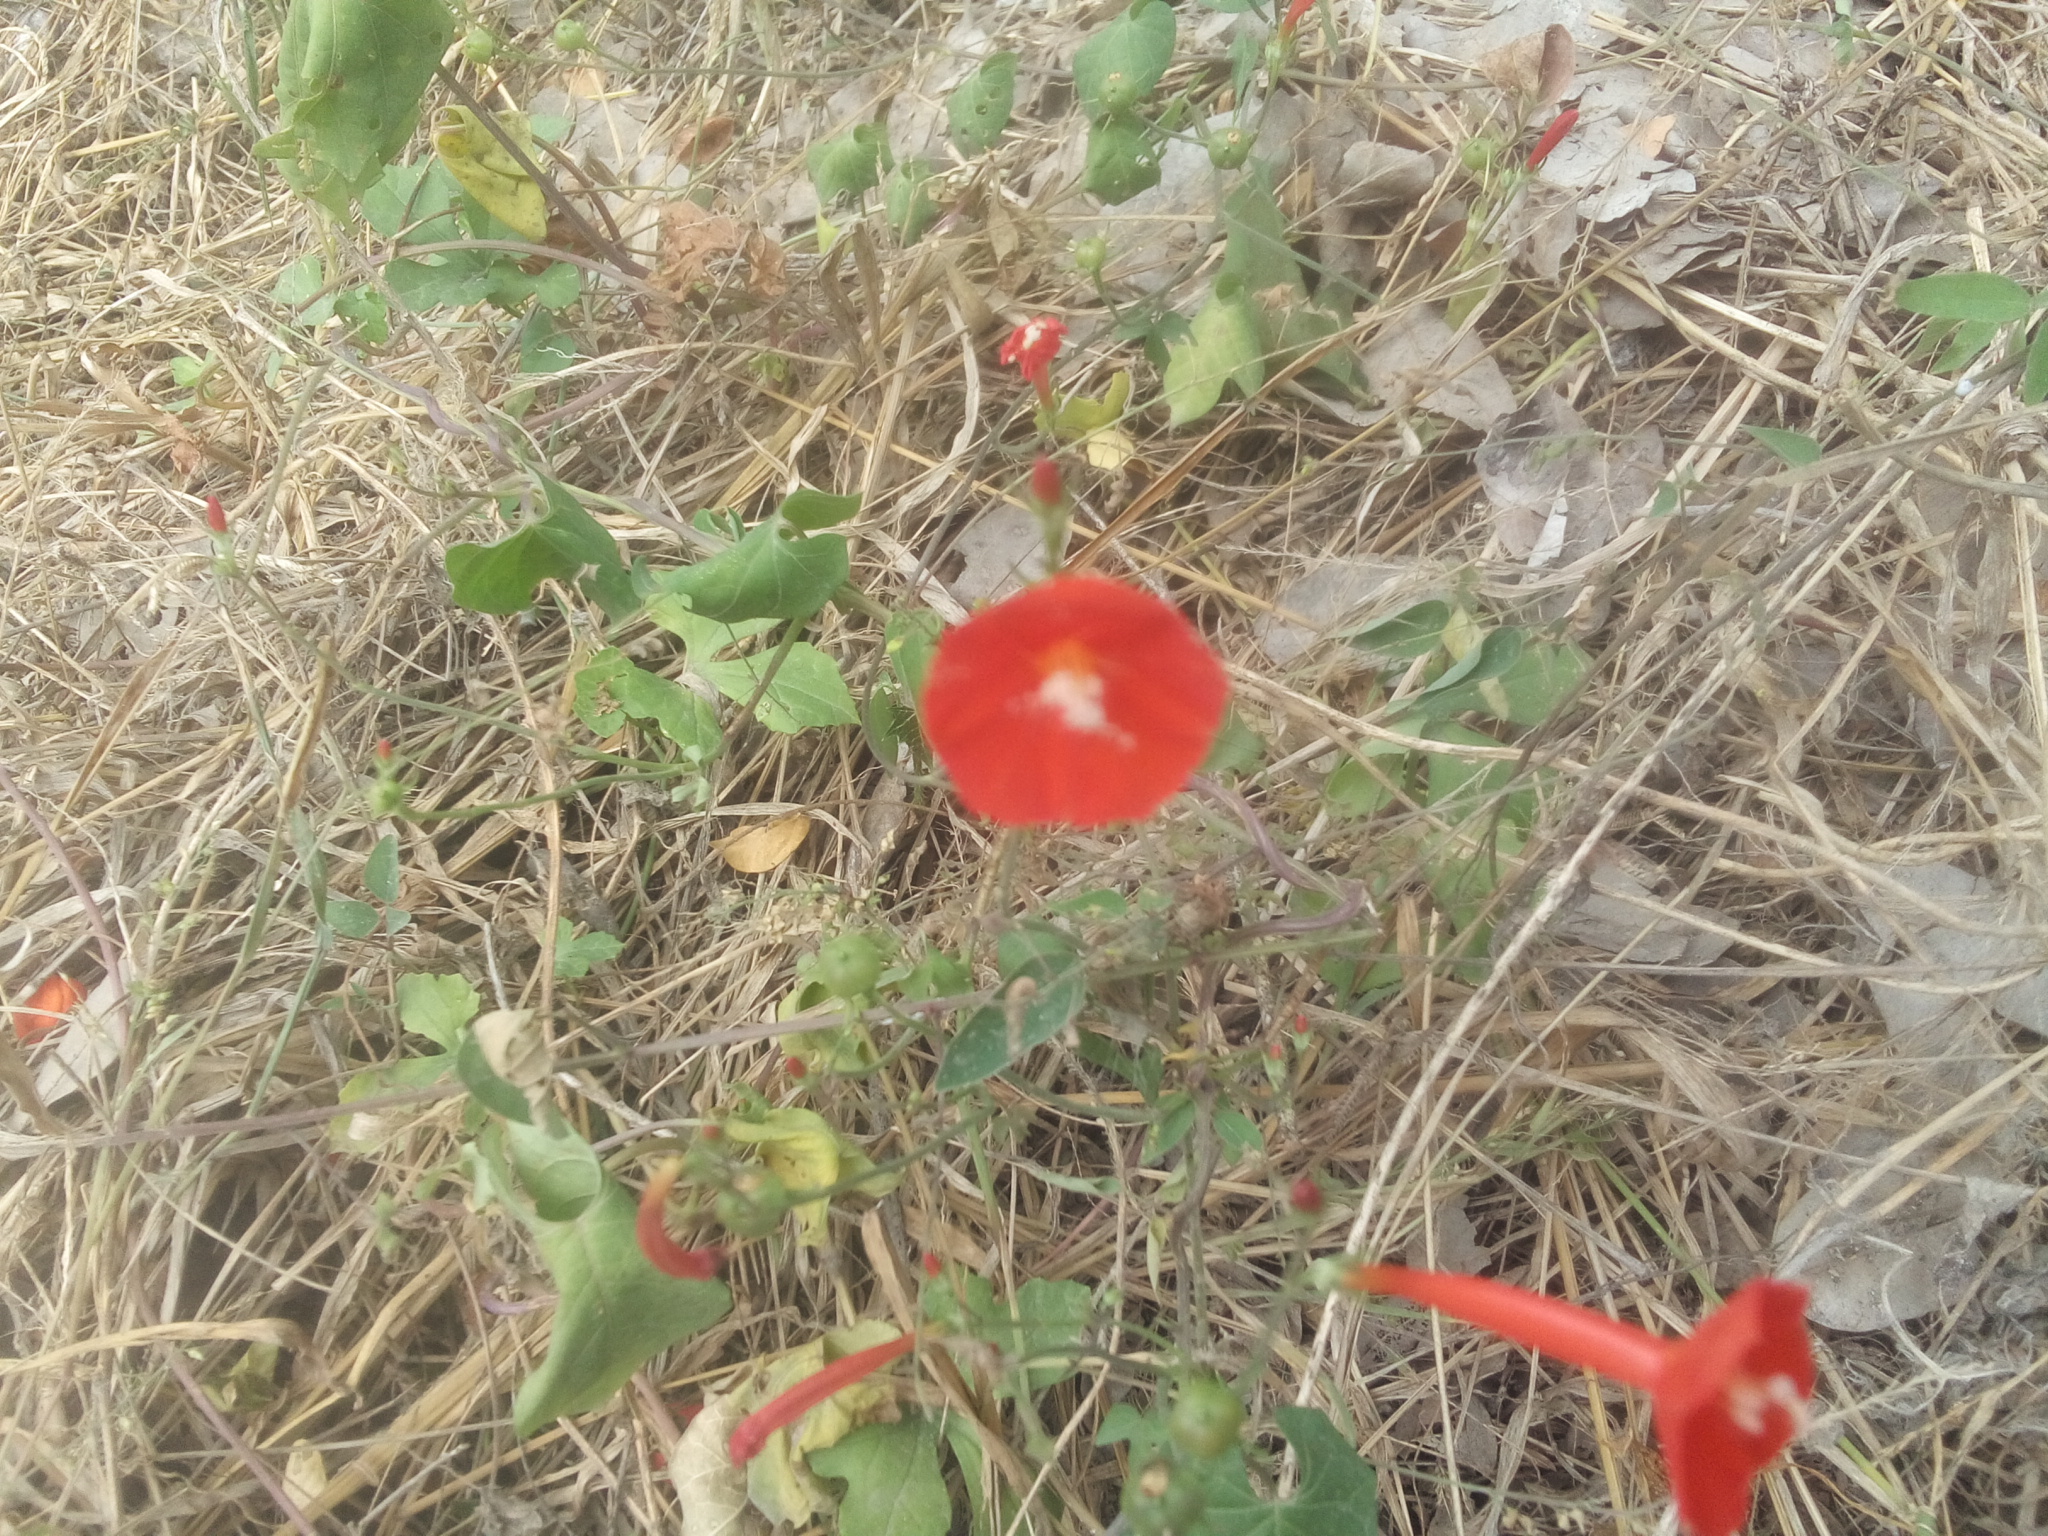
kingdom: Plantae
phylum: Tracheophyta
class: Magnoliopsida
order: Solanales
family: Convolvulaceae
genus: Ipomoea
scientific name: Ipomoea hederifolia
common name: Ivy-leaf morning-glory
